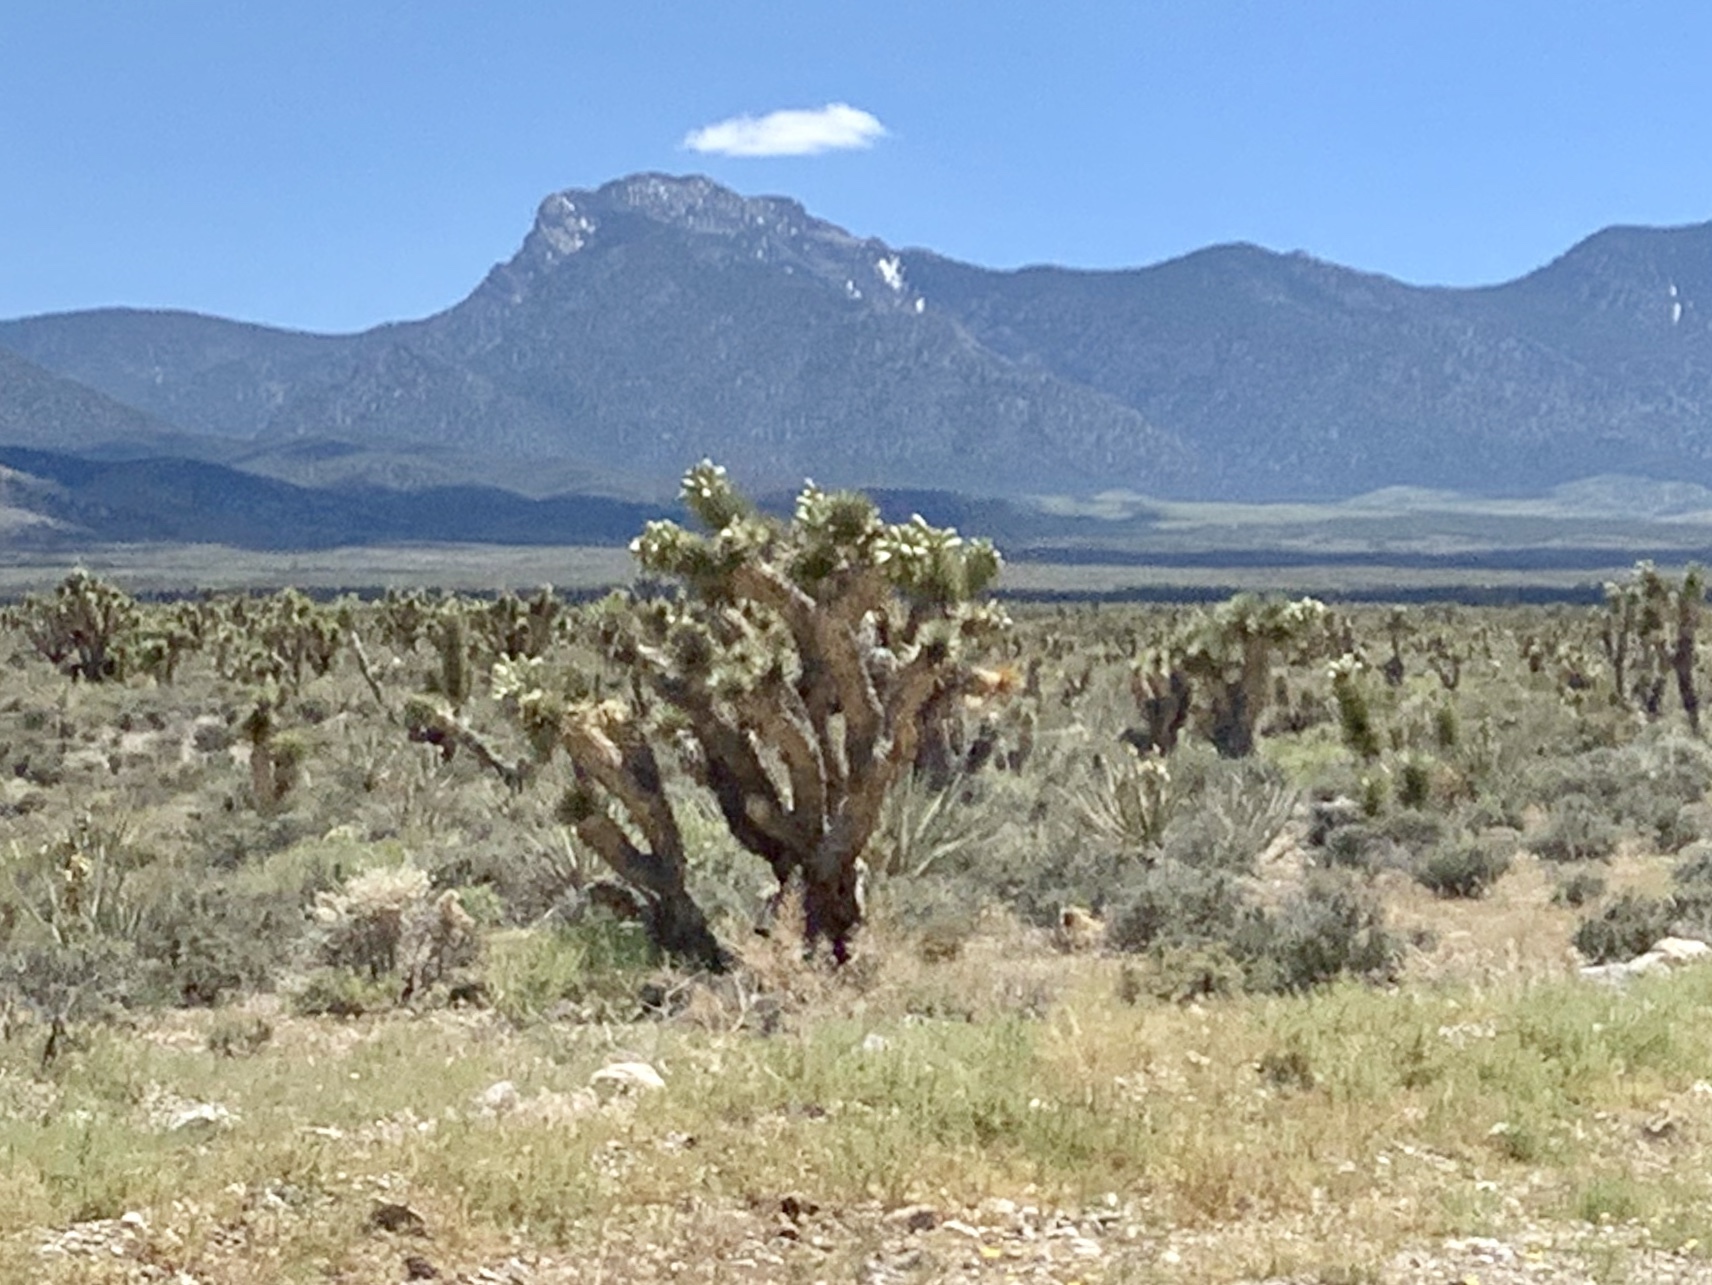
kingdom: Plantae
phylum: Tracheophyta
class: Liliopsida
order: Asparagales
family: Asparagaceae
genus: Yucca
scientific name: Yucca brevifolia
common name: Joshua tree
